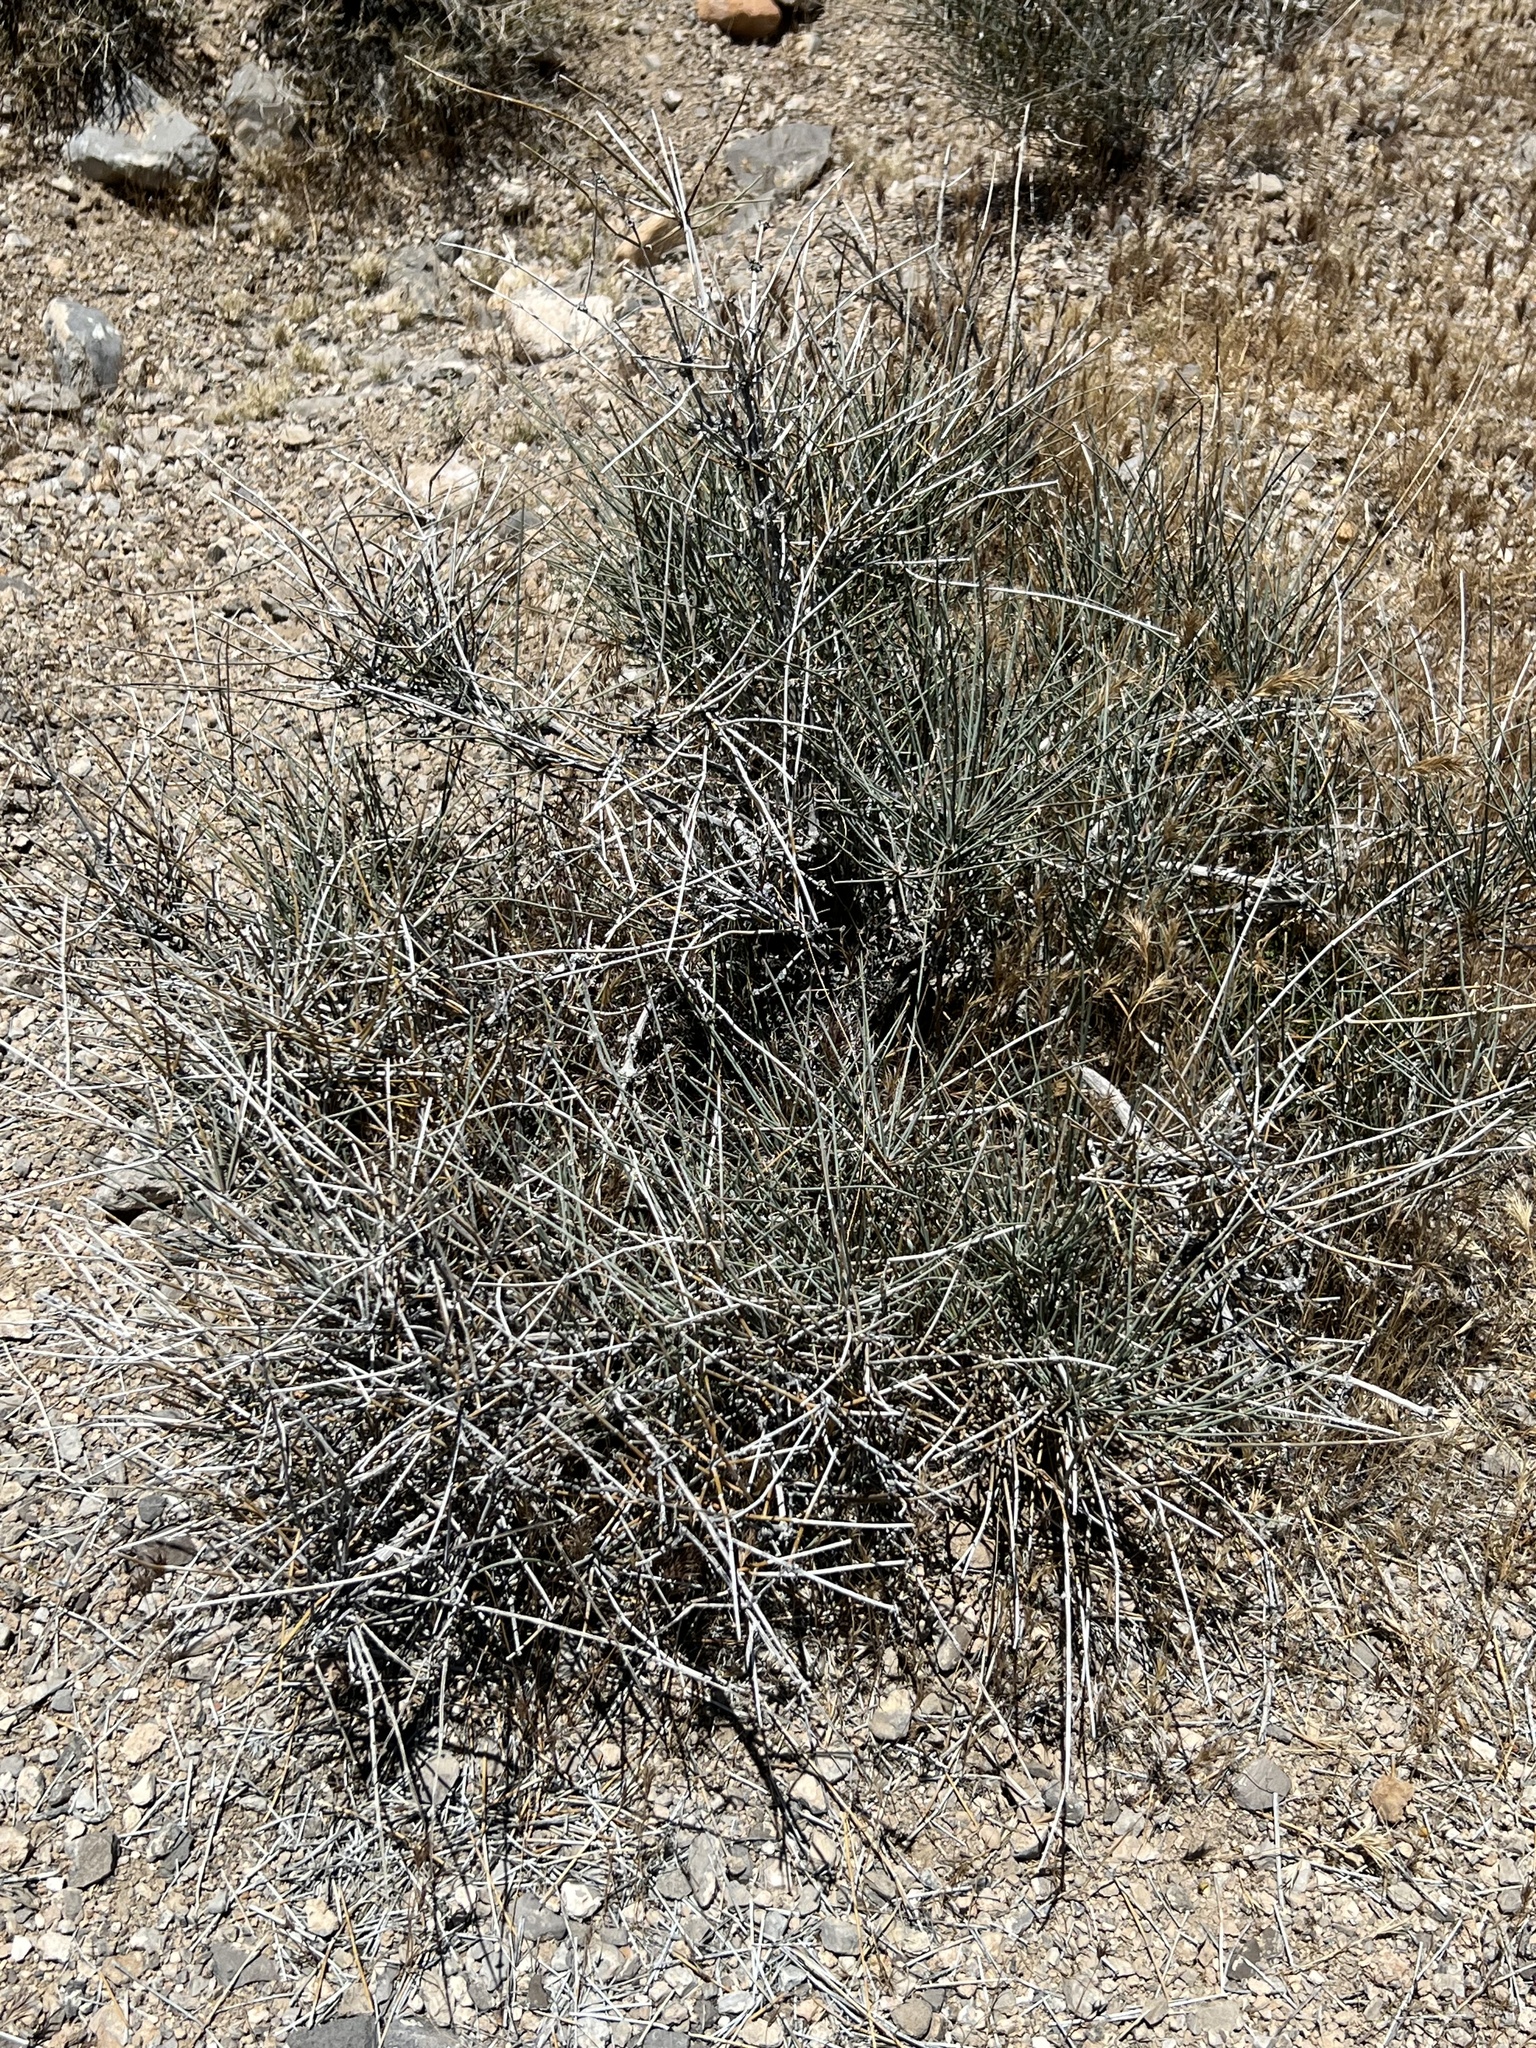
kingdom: Plantae
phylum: Tracheophyta
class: Gnetopsida
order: Ephedrales
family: Ephedraceae
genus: Ephedra
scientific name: Ephedra nevadensis
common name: Gray ephedra
